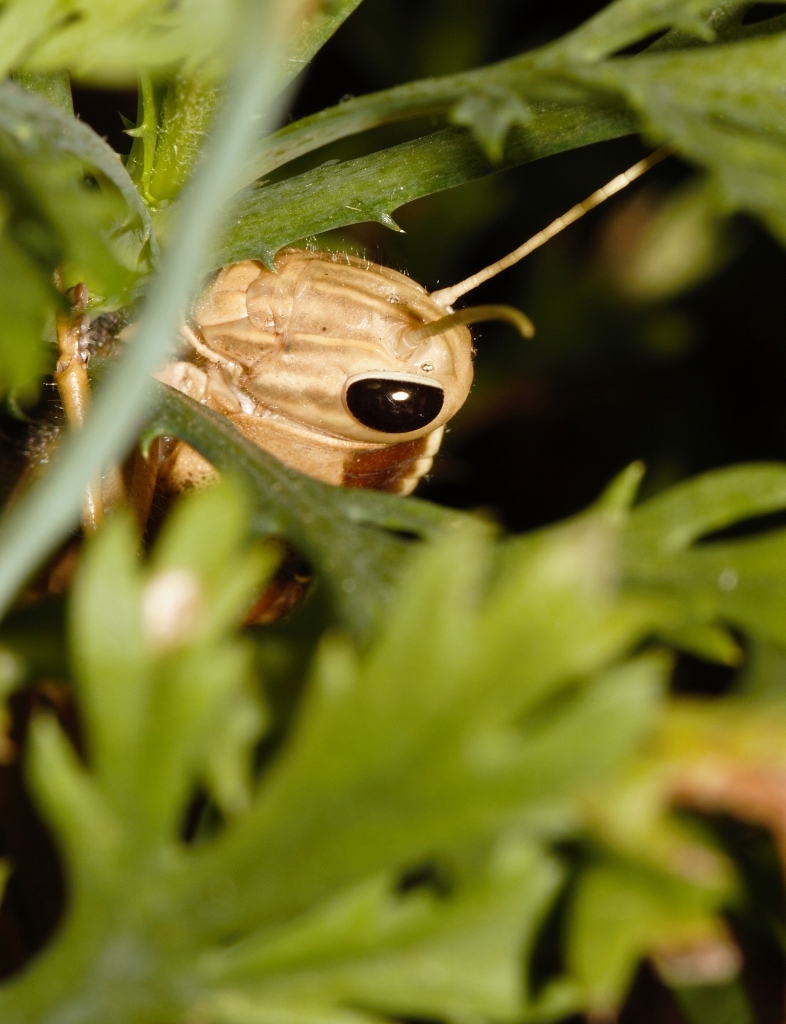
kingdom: Animalia
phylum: Arthropoda
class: Insecta
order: Orthoptera
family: Acrididae
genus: Acanthacris
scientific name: Acanthacris ruficornis
